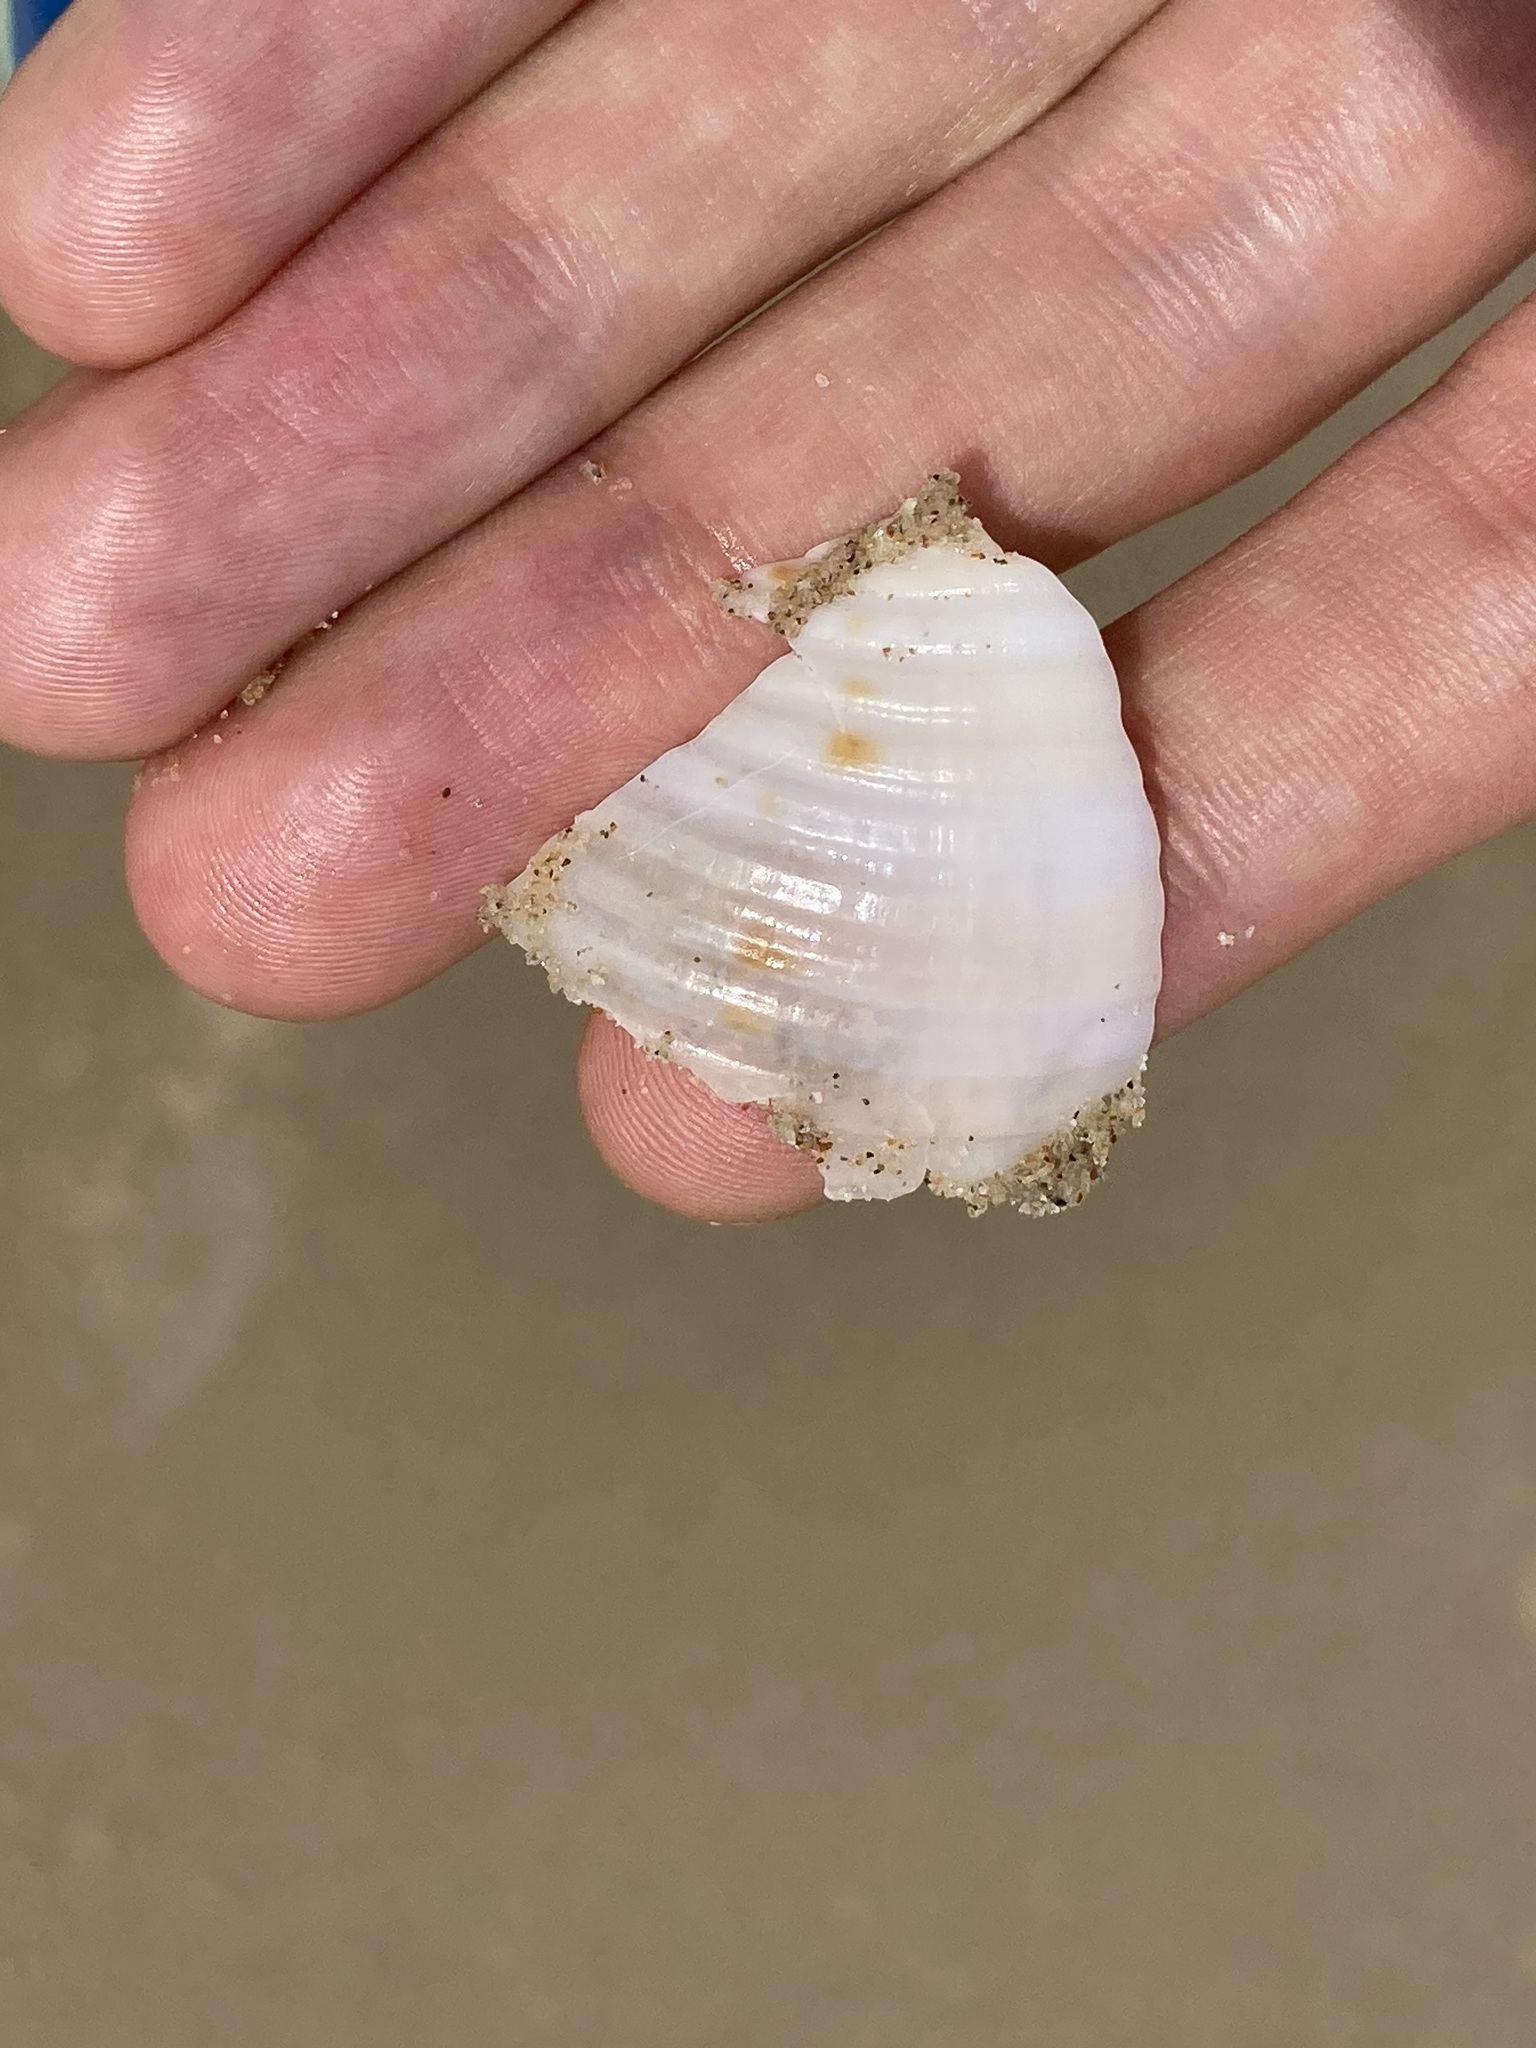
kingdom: Animalia
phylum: Mollusca
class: Gastropoda
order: Littorinimorpha
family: Tonnidae
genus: Tonna
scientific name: Tonna tankervillii
